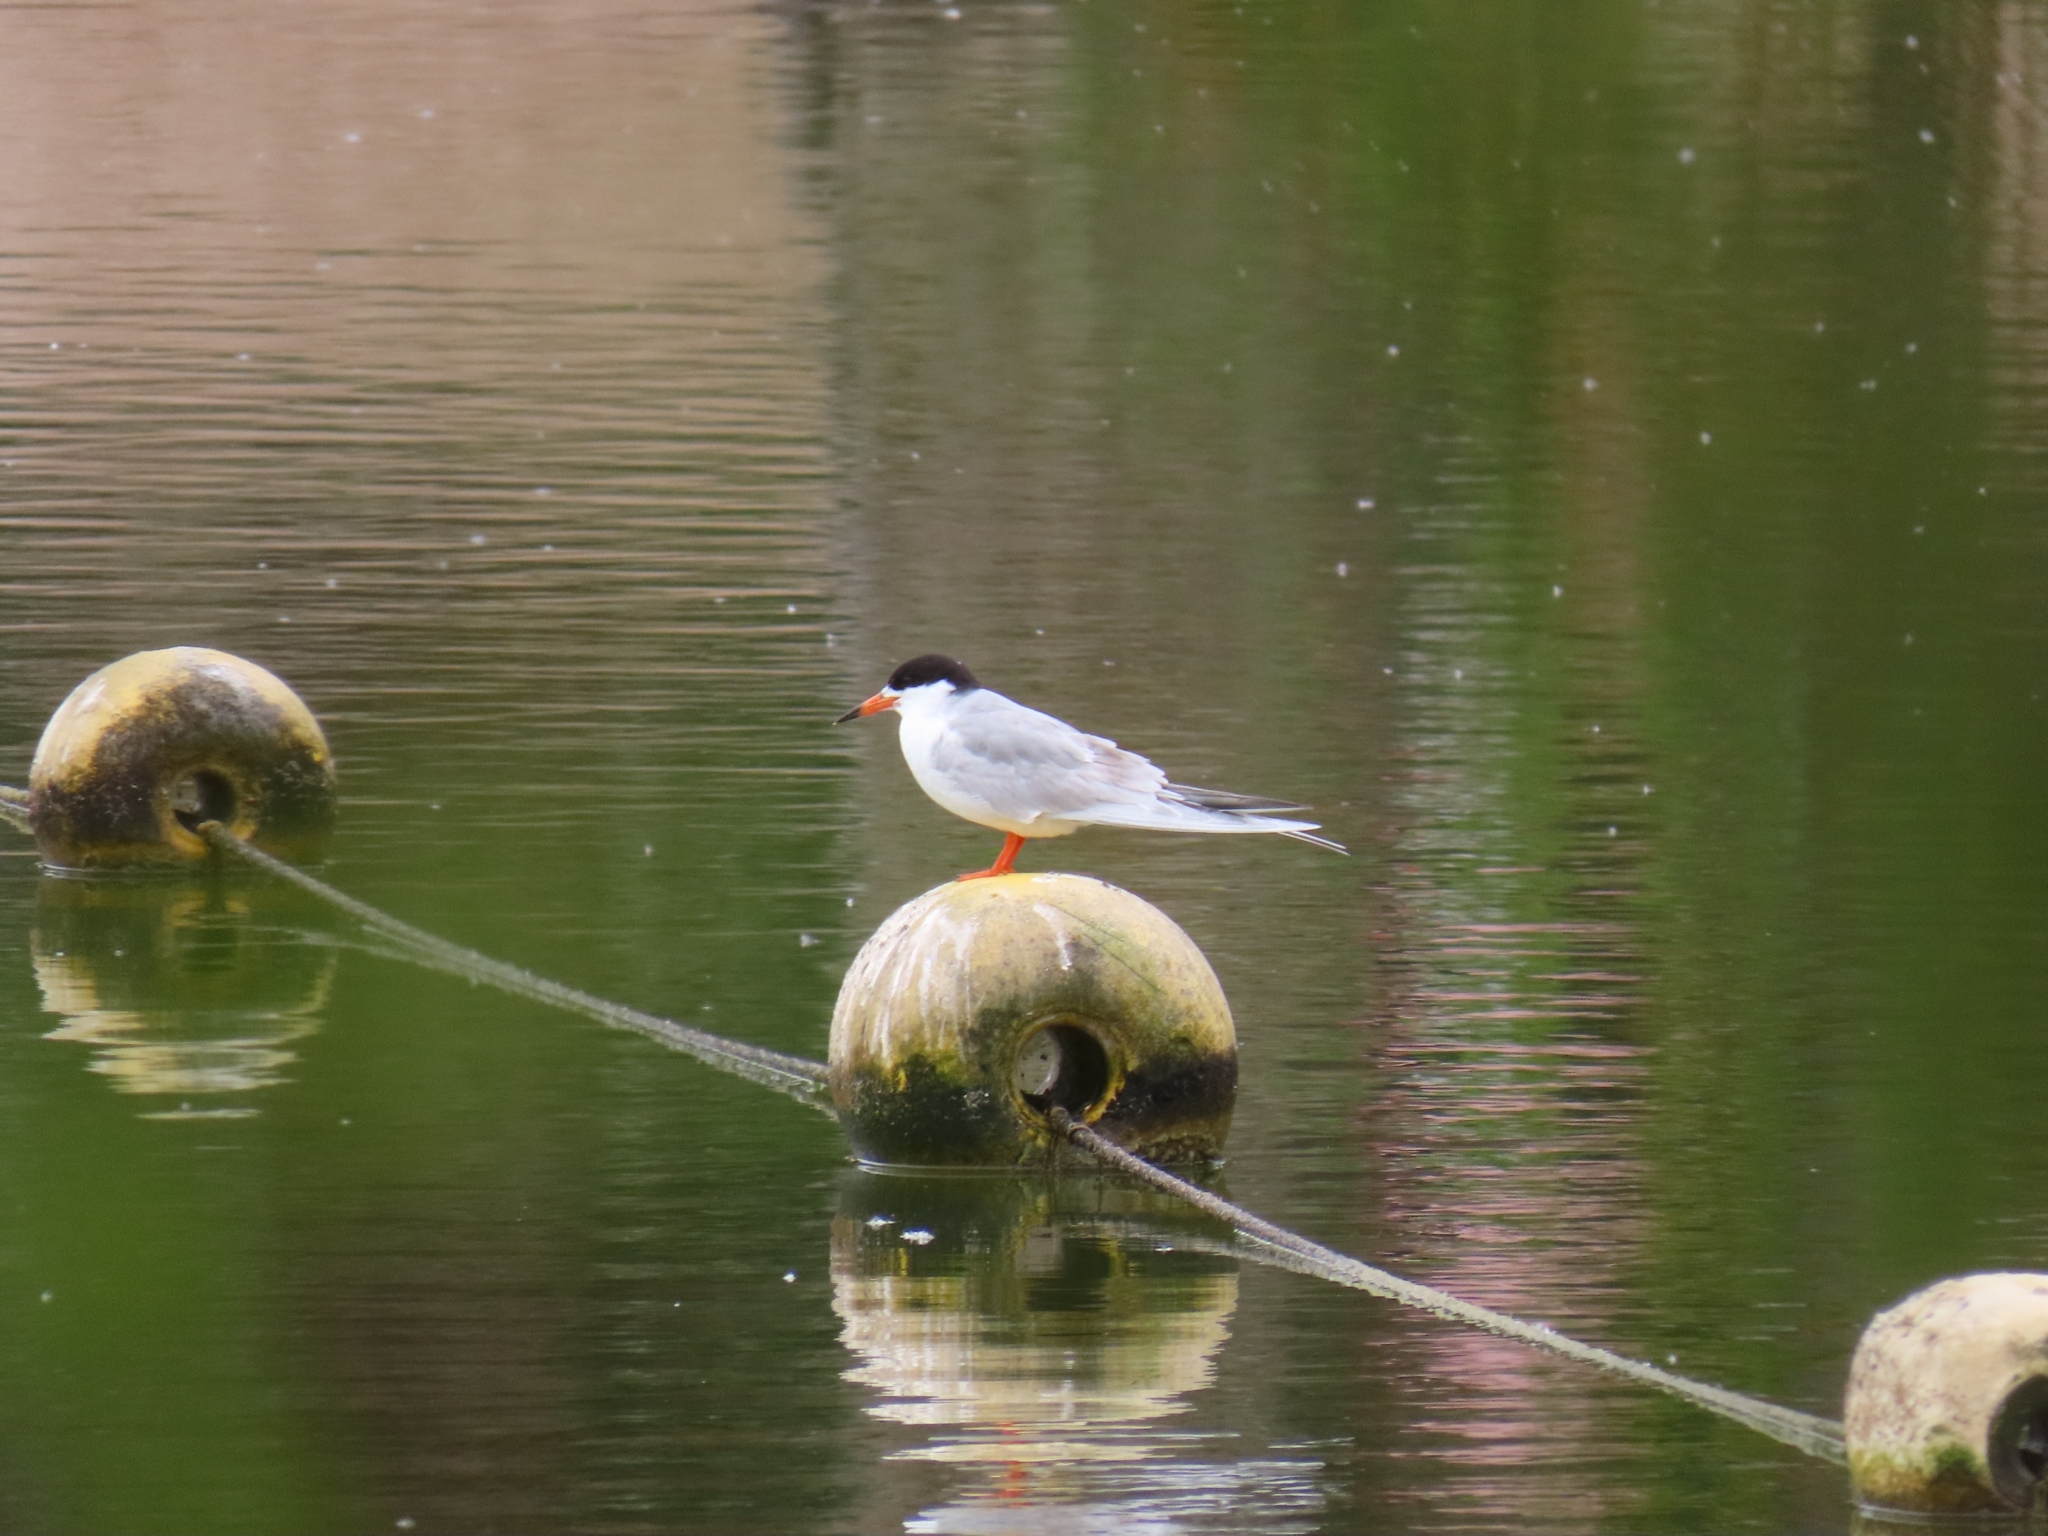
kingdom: Animalia
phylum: Chordata
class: Aves
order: Charadriiformes
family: Laridae
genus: Sterna
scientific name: Sterna forsteri
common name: Forster's tern
